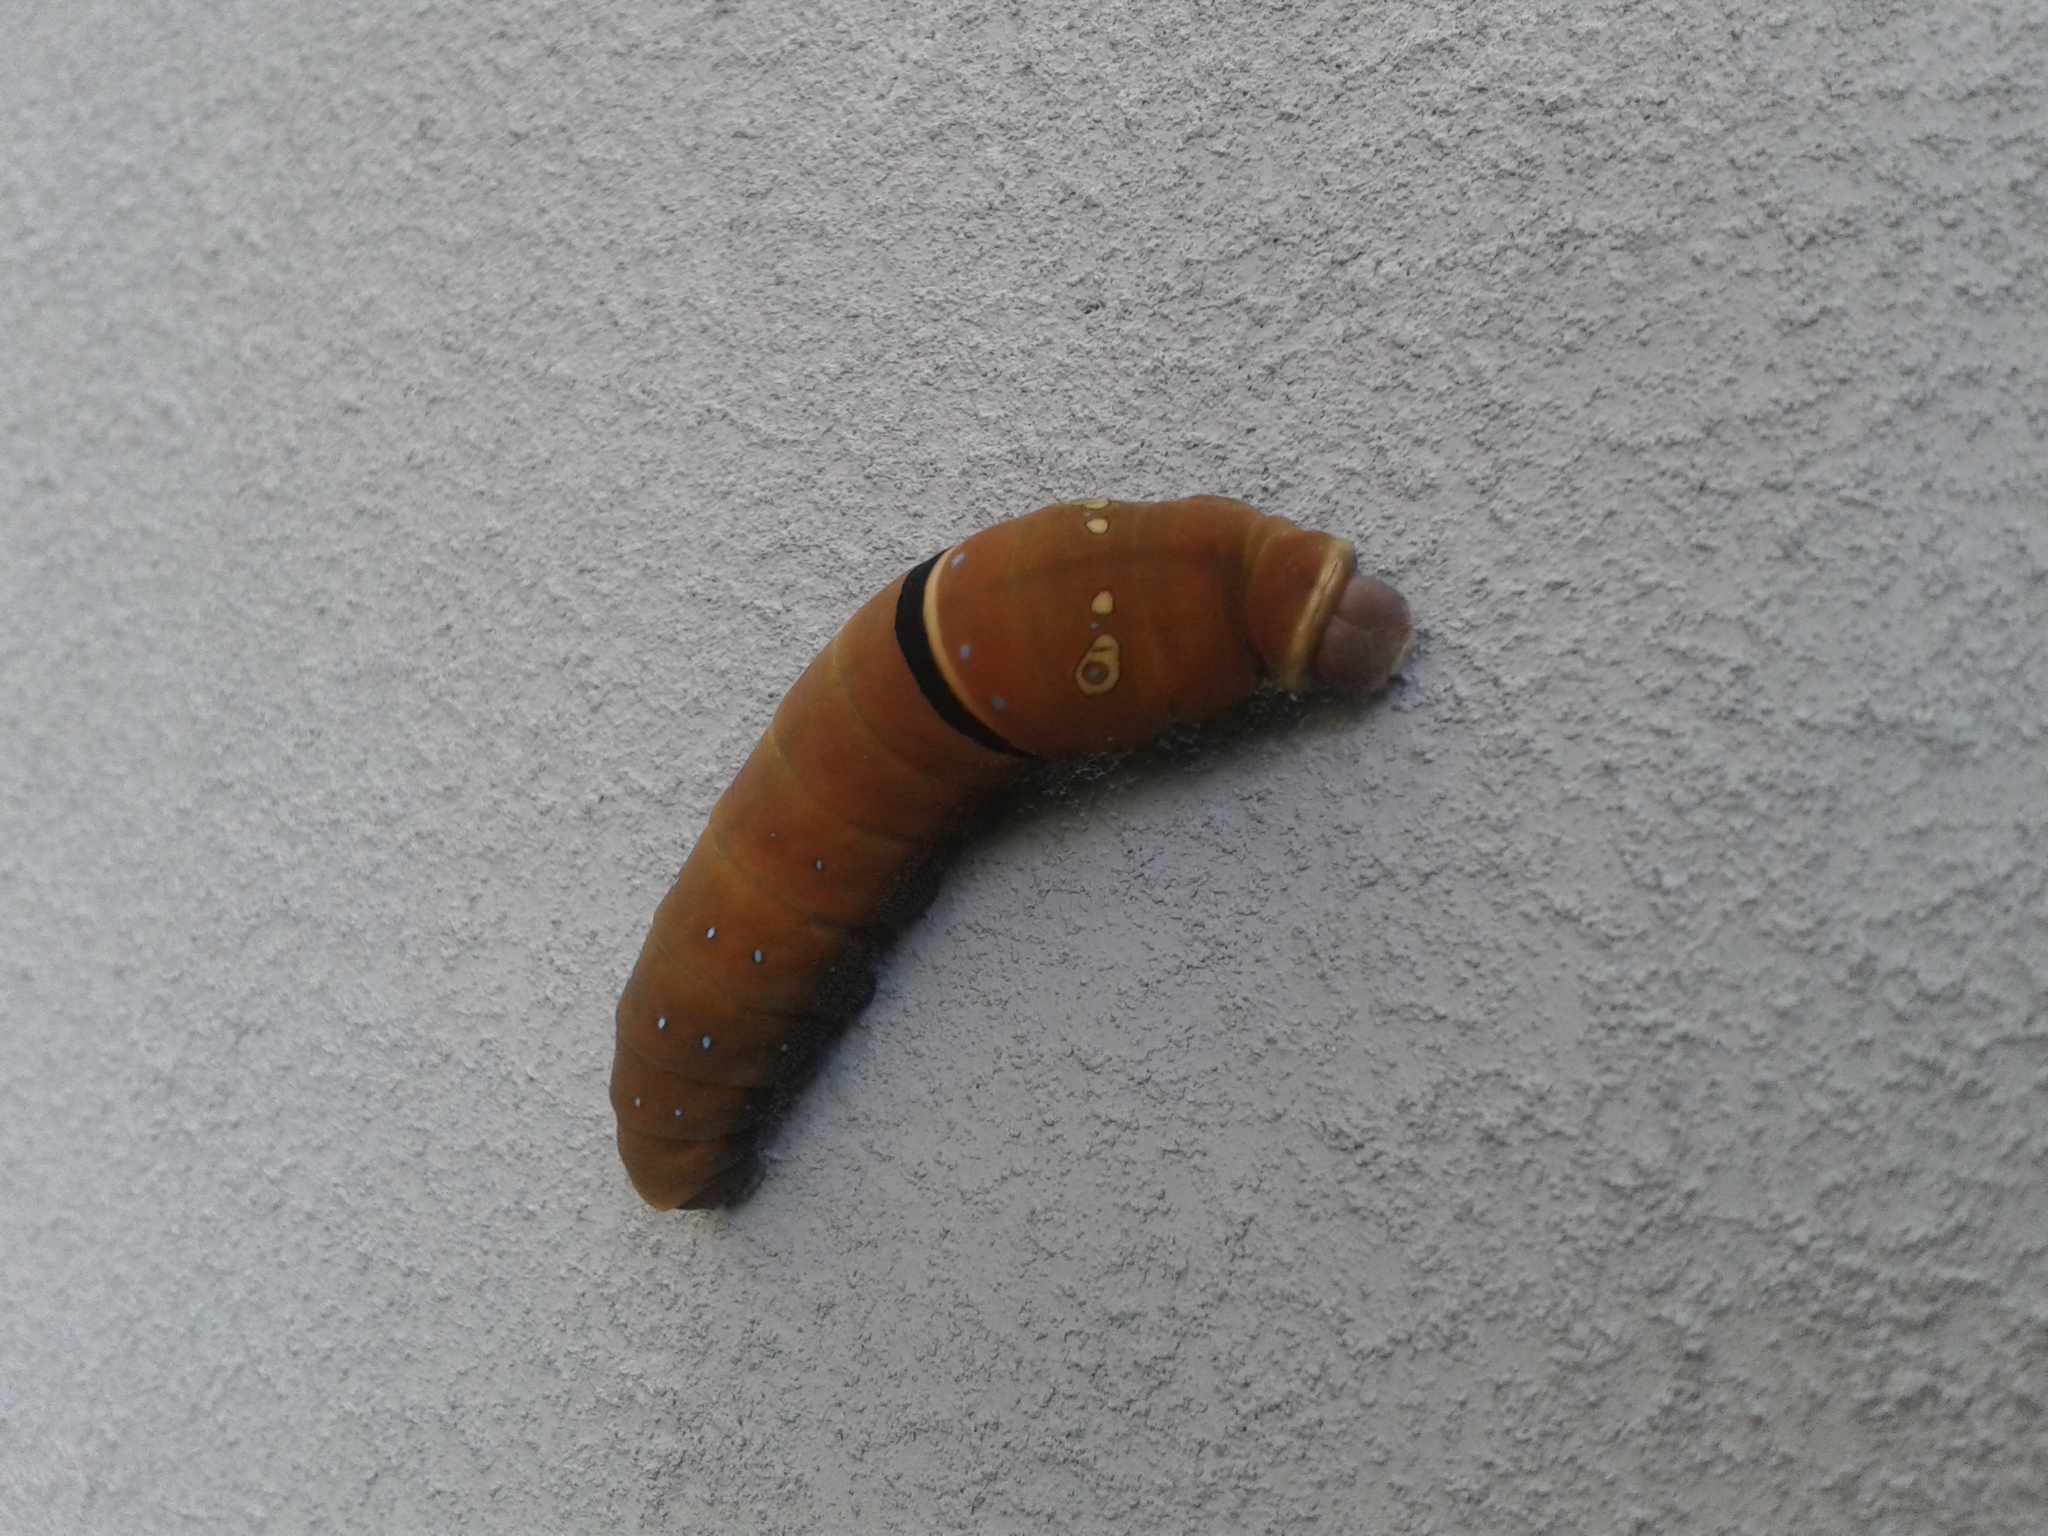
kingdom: Animalia
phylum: Arthropoda
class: Insecta
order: Lepidoptera
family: Papilionidae
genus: Papilio
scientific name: Papilio multicaudata
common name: Two-tailed tiger swallowtail
